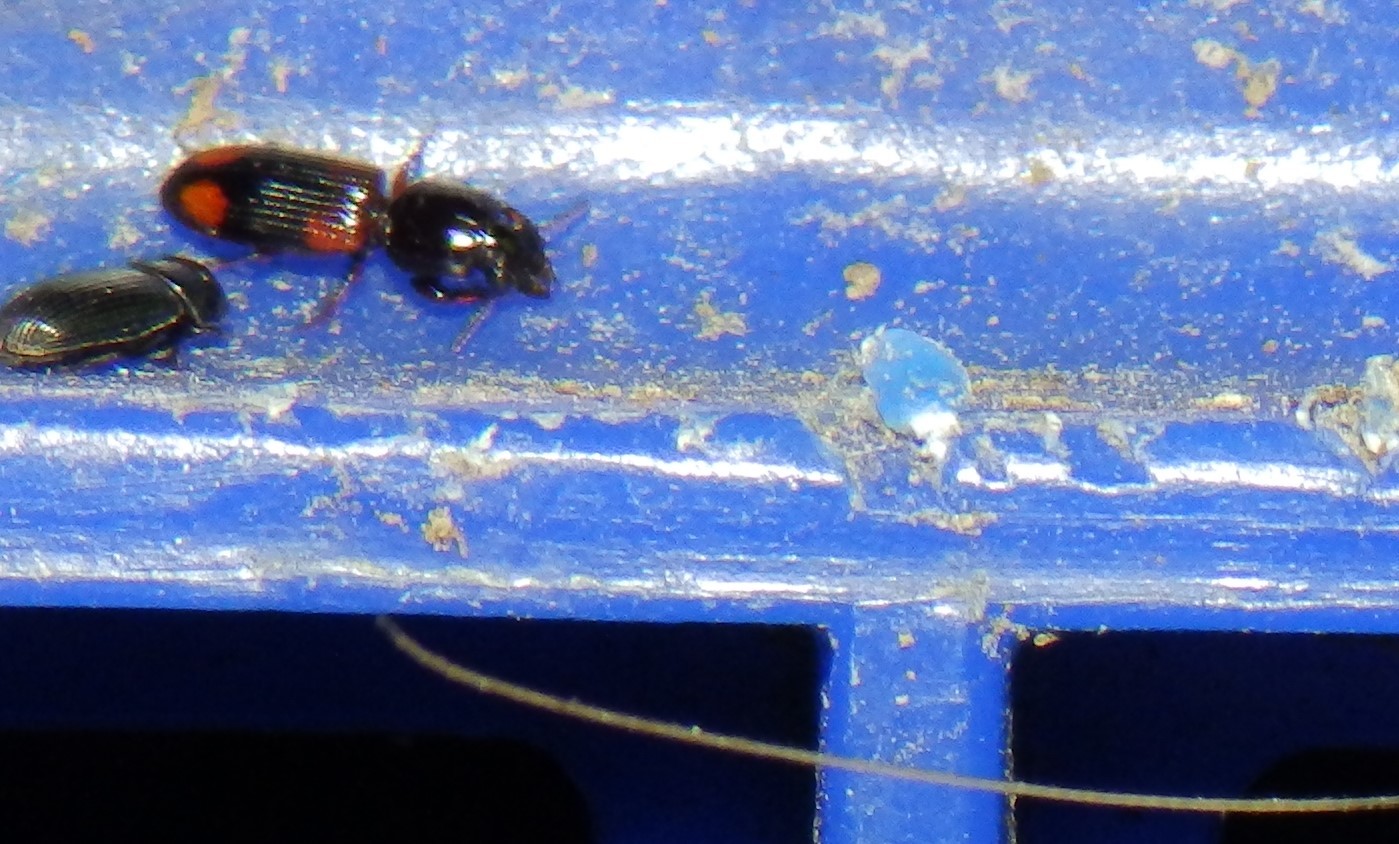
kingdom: Animalia
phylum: Arthropoda
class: Insecta
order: Coleoptera
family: Carabidae
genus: Clivina
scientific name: Clivina bipustulata
